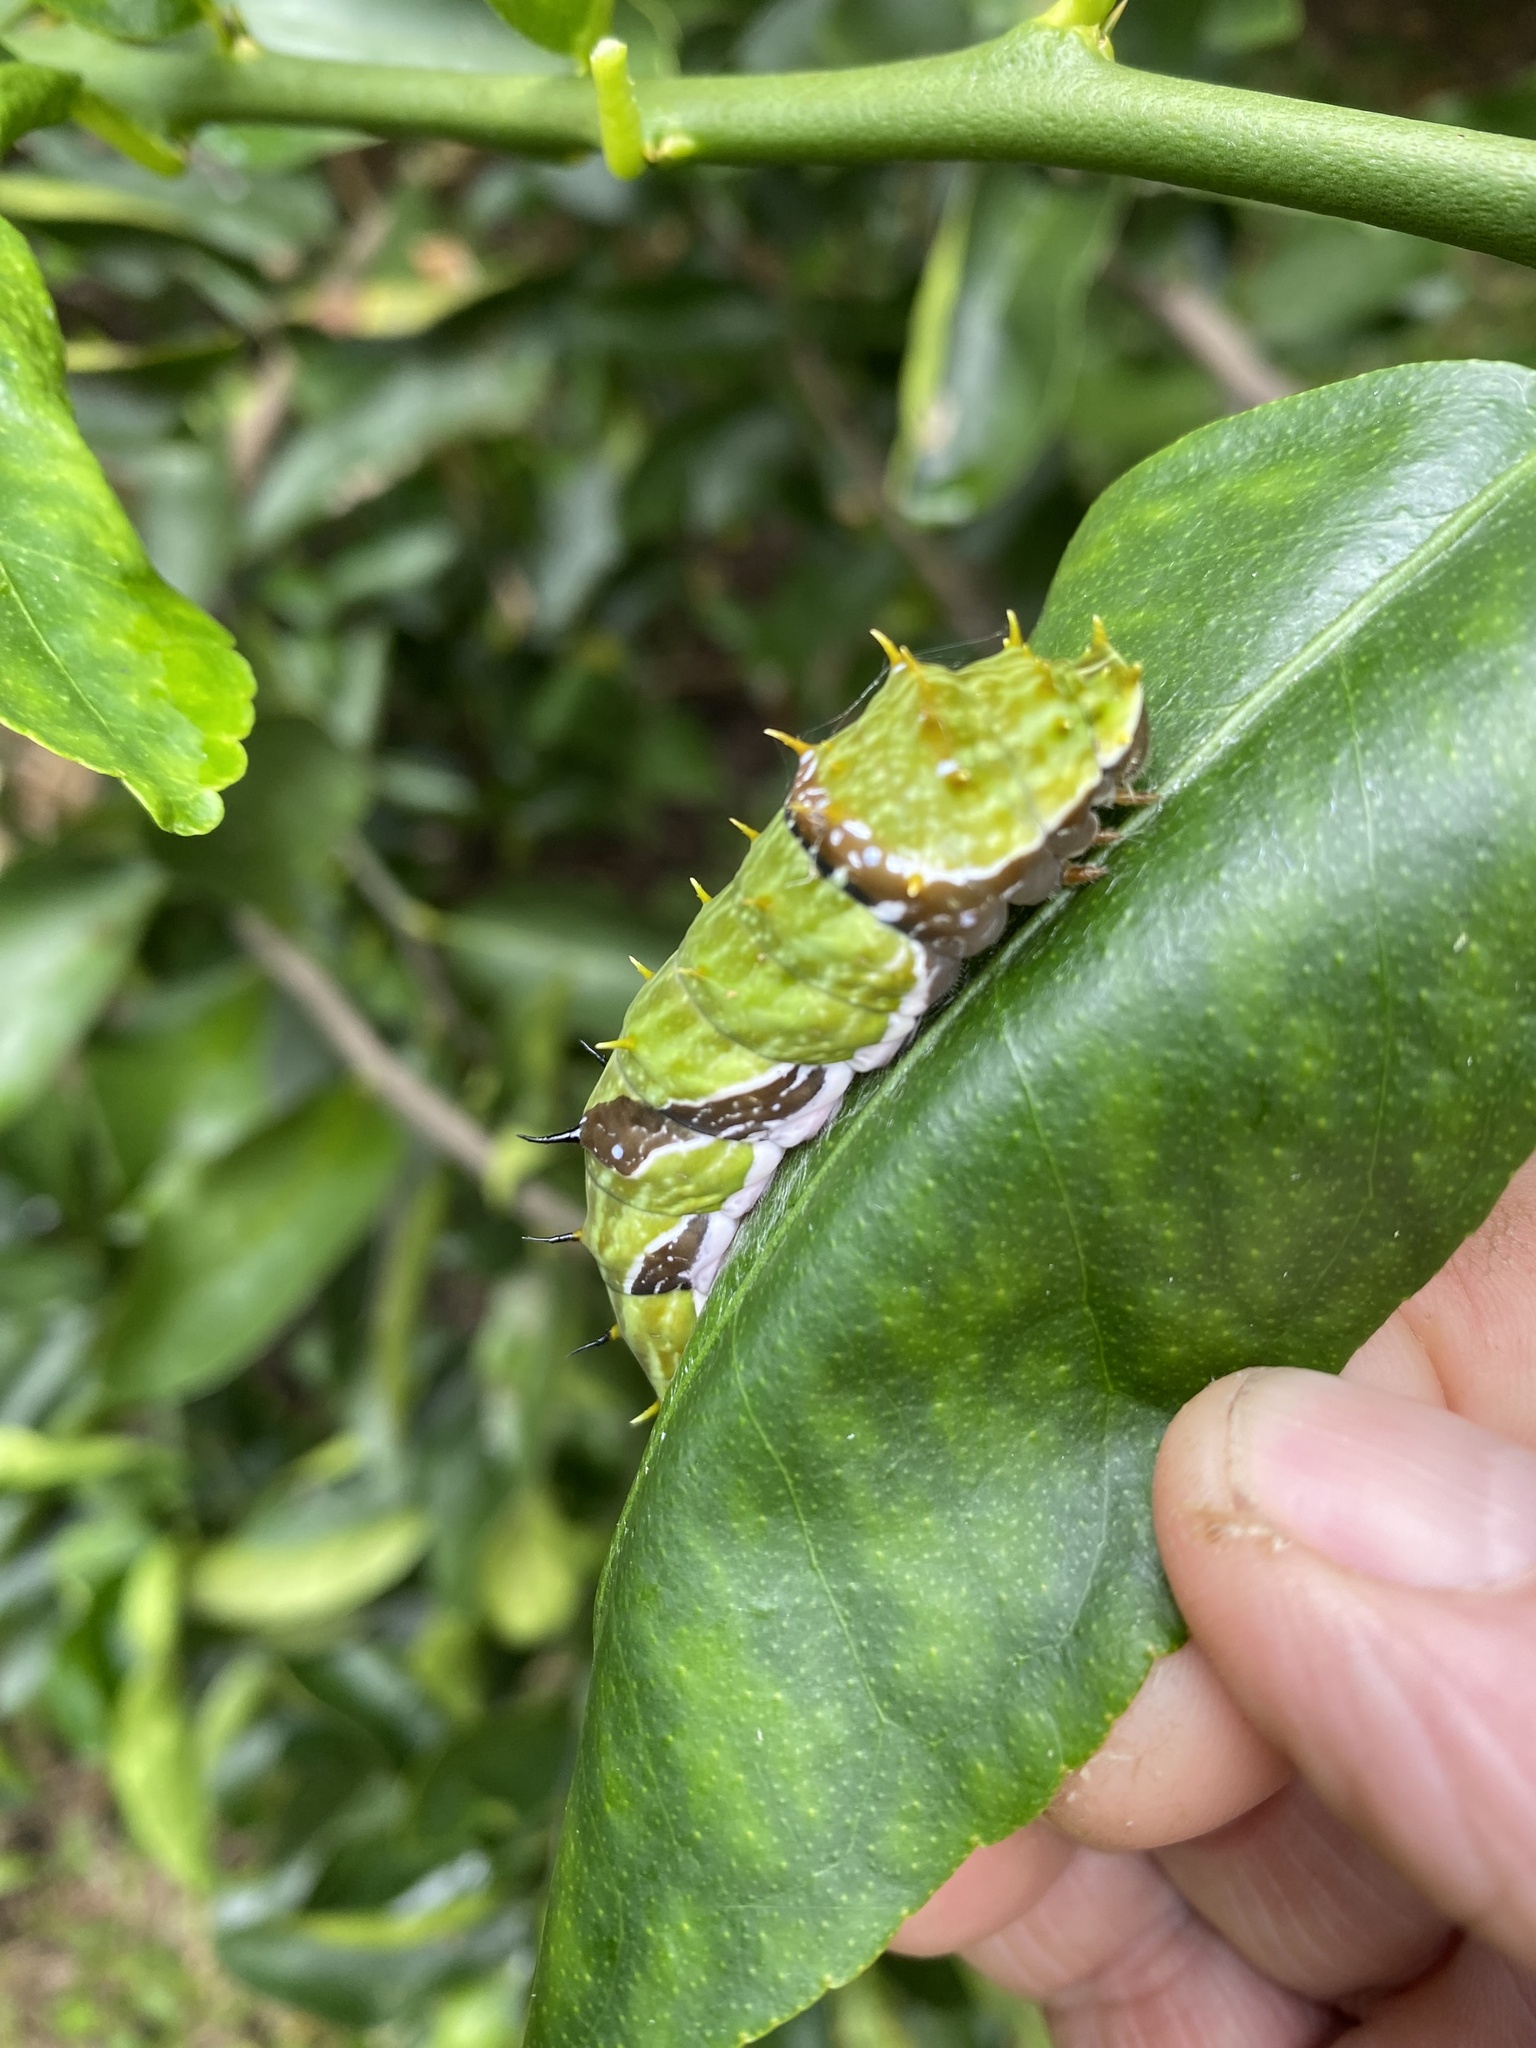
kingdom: Animalia
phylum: Arthropoda
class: Insecta
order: Lepidoptera
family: Papilionidae
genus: Papilio
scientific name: Papilio aegeus
